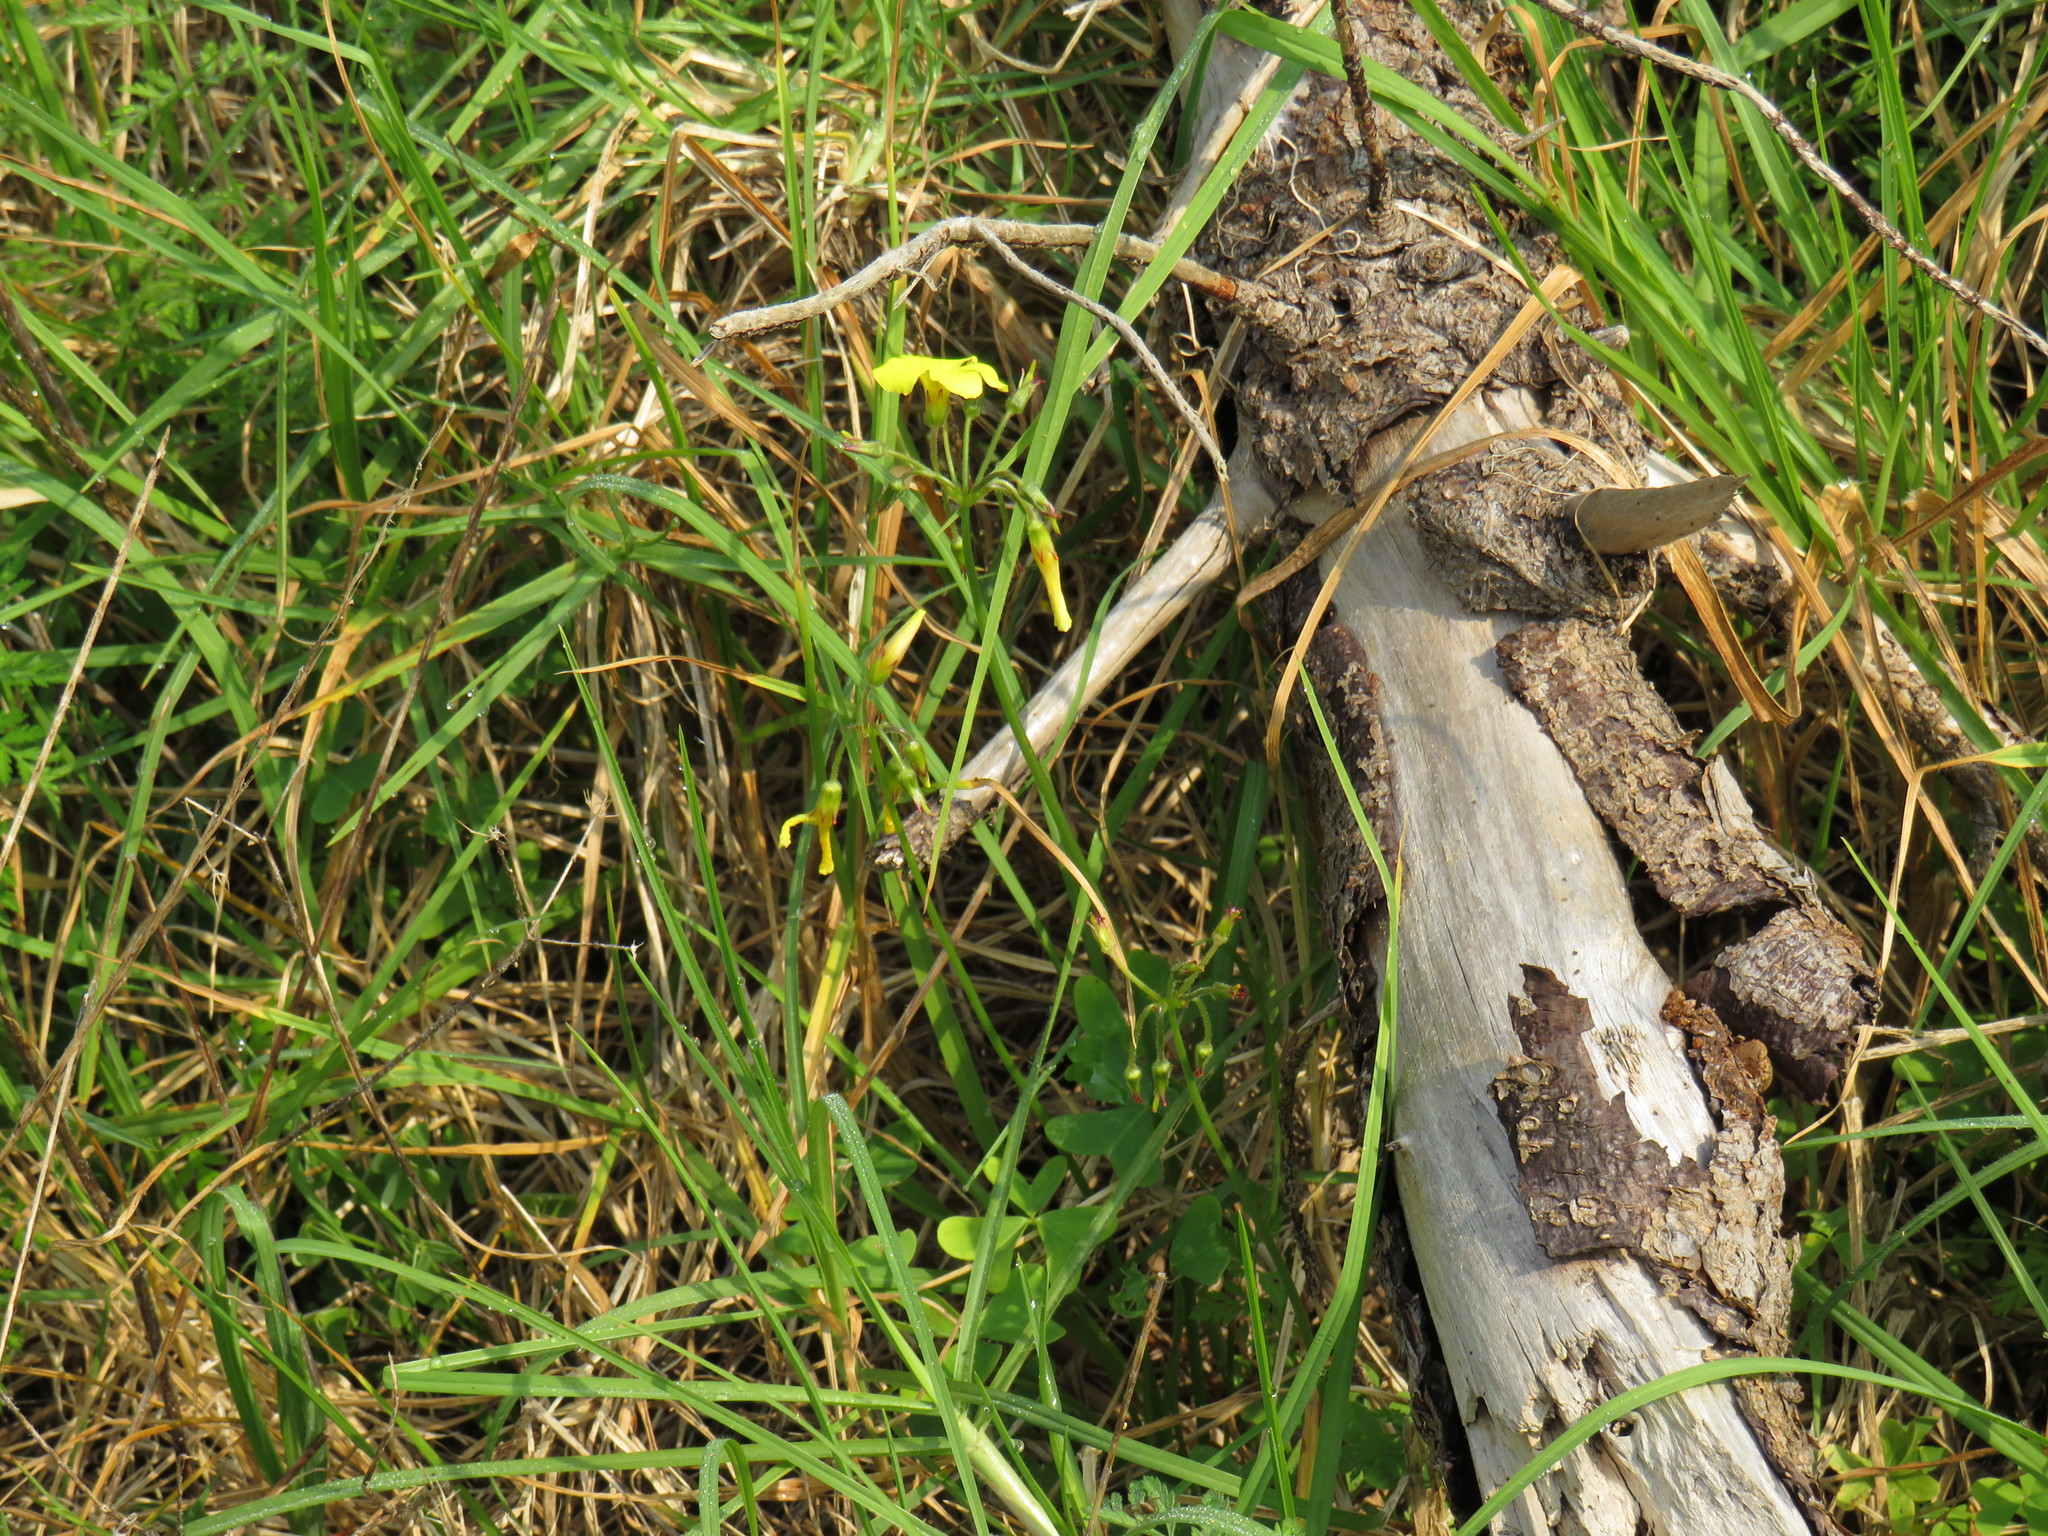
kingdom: Plantae
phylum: Tracheophyta
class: Magnoliopsida
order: Oxalidales
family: Oxalidaceae
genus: Oxalis
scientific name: Oxalis pes-caprae
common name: Bermuda-buttercup
